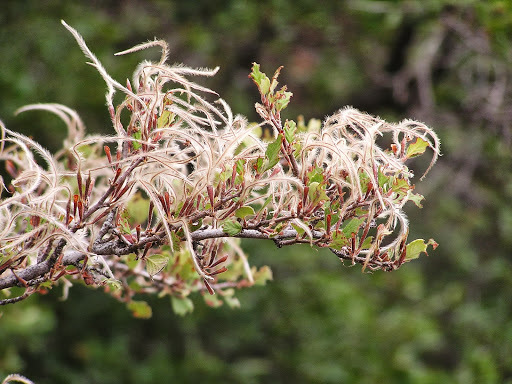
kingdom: Plantae
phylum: Tracheophyta
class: Magnoliopsida
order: Rosales
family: Rosaceae
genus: Cercocarpus
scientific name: Cercocarpus
